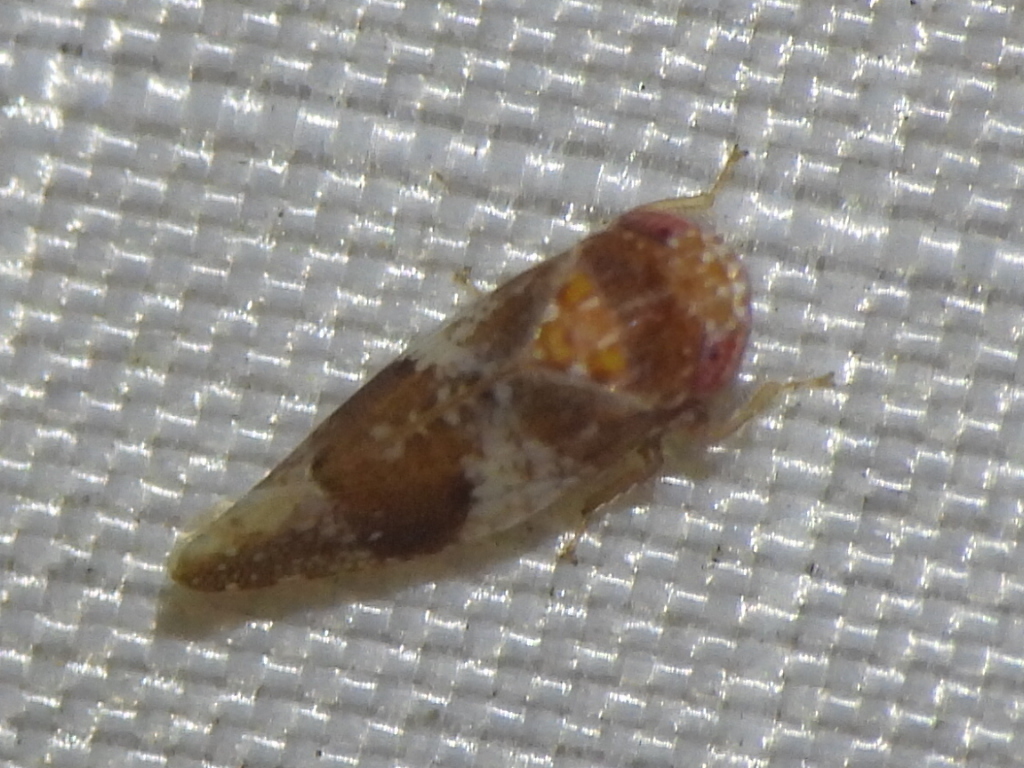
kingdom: Animalia
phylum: Arthropoda
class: Insecta
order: Hemiptera
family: Cicadellidae
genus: Norvellina
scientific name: Norvellina helenae
